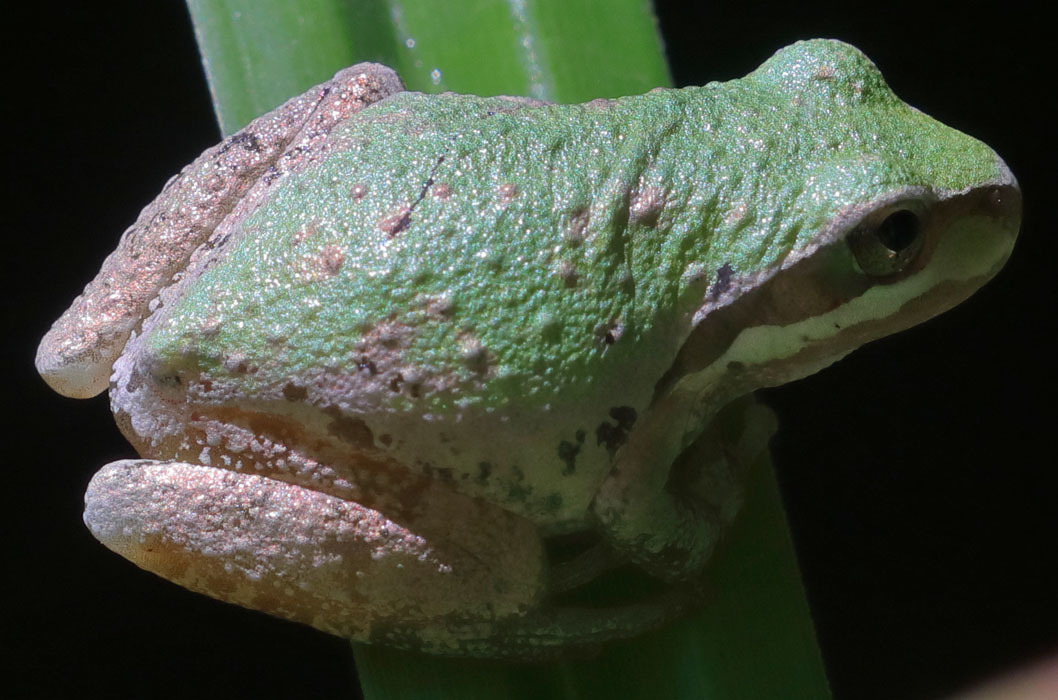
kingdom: Animalia
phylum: Chordata
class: Amphibia
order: Anura
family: Hylidae
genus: Pseudacris
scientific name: Pseudacris regilla
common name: Pacific chorus frog
